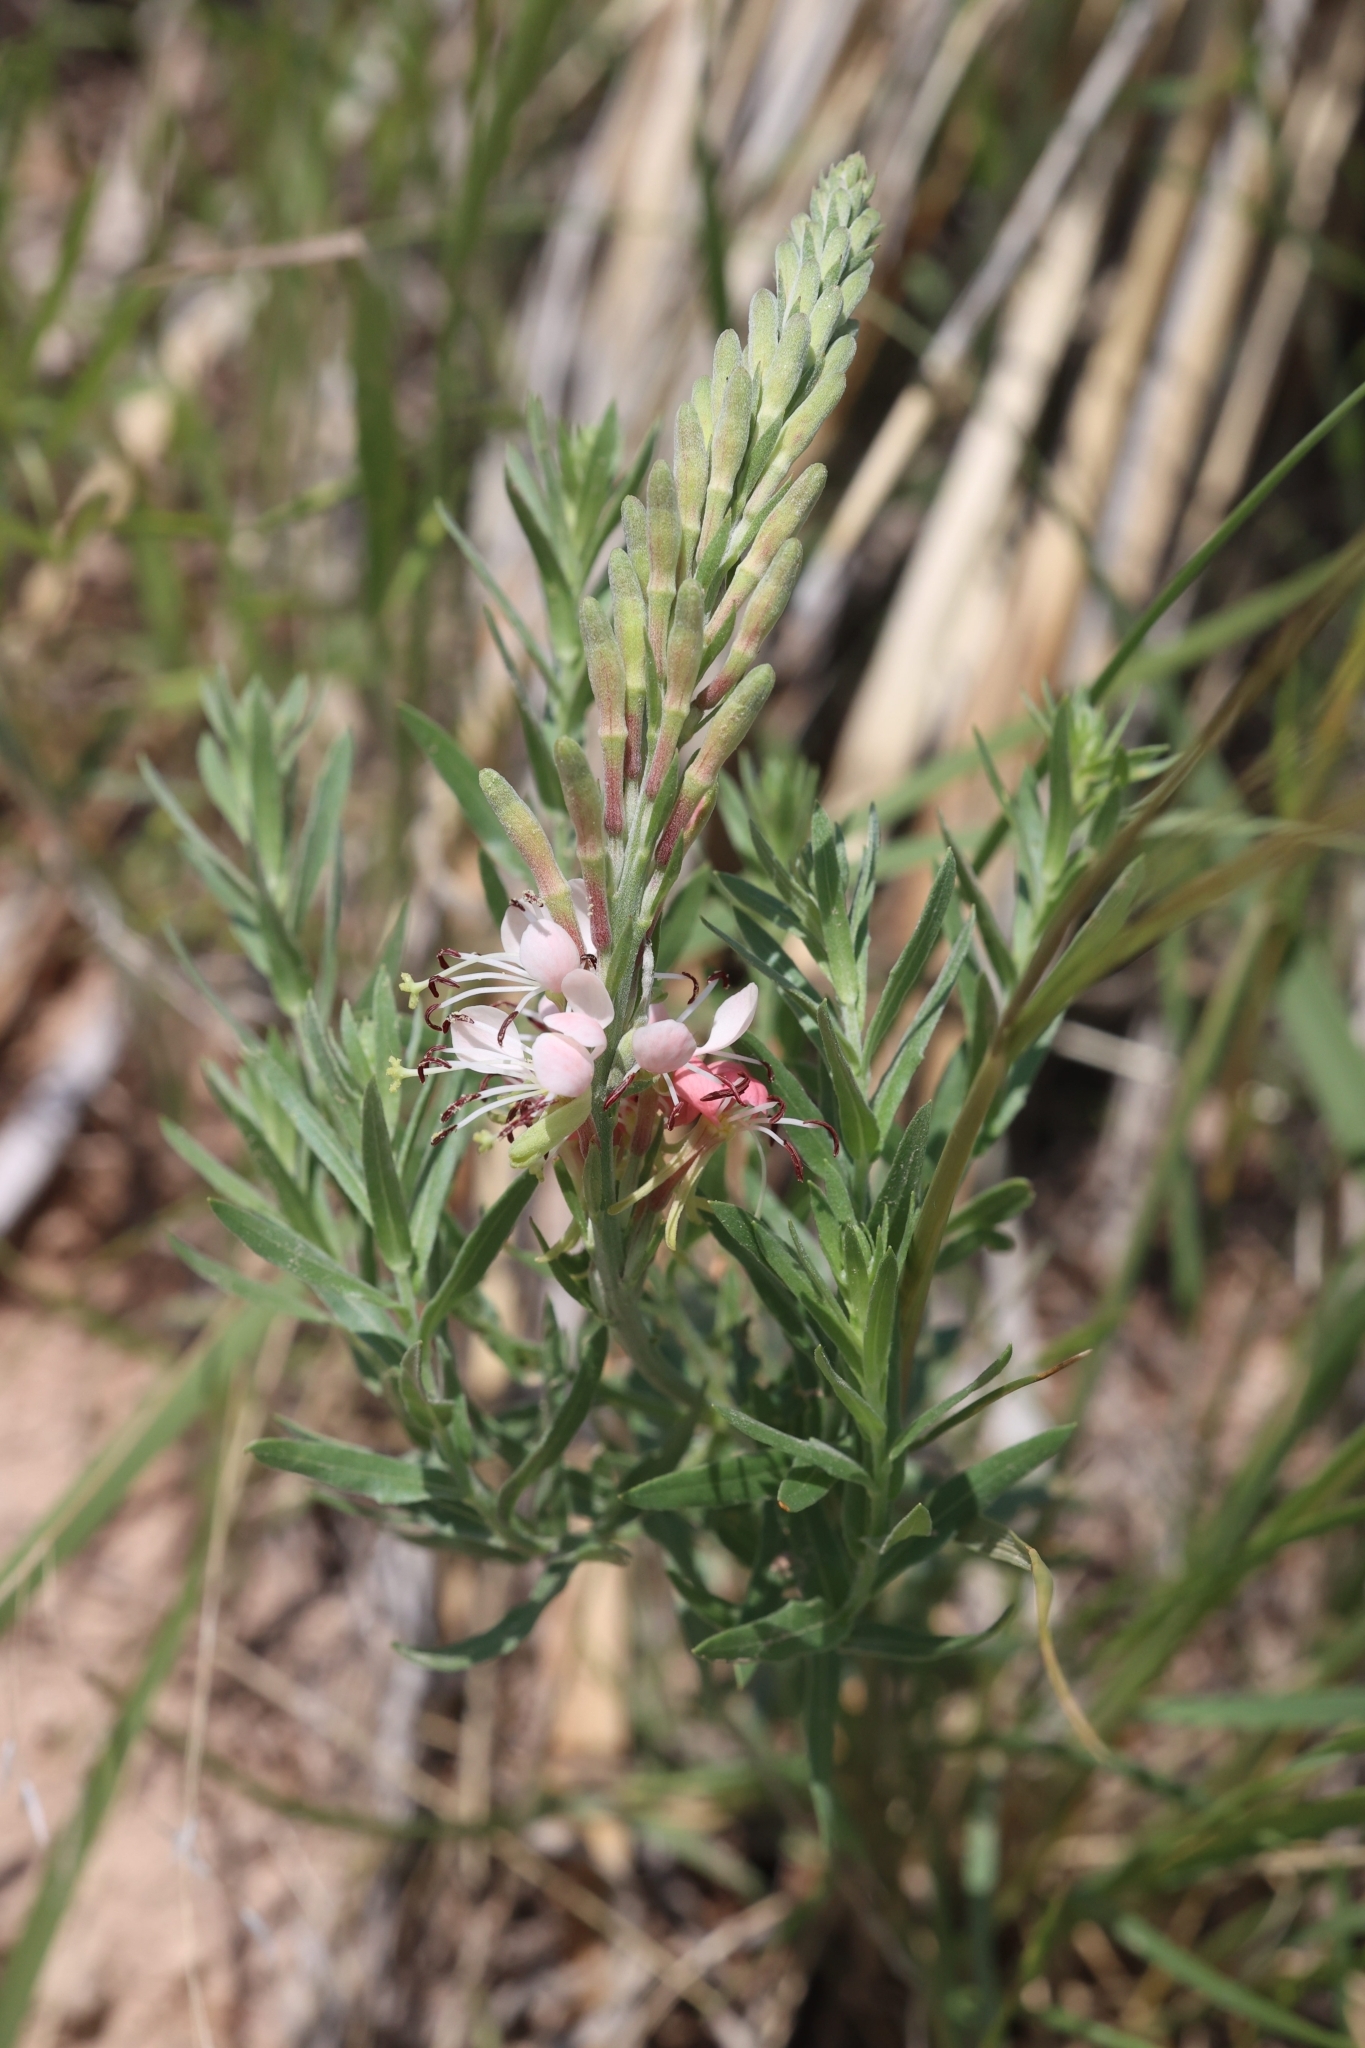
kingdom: Plantae
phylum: Tracheophyta
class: Magnoliopsida
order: Myrtales
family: Onagraceae
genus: Oenothera
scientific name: Oenothera suffrutescens
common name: Scarlet beeblossom
